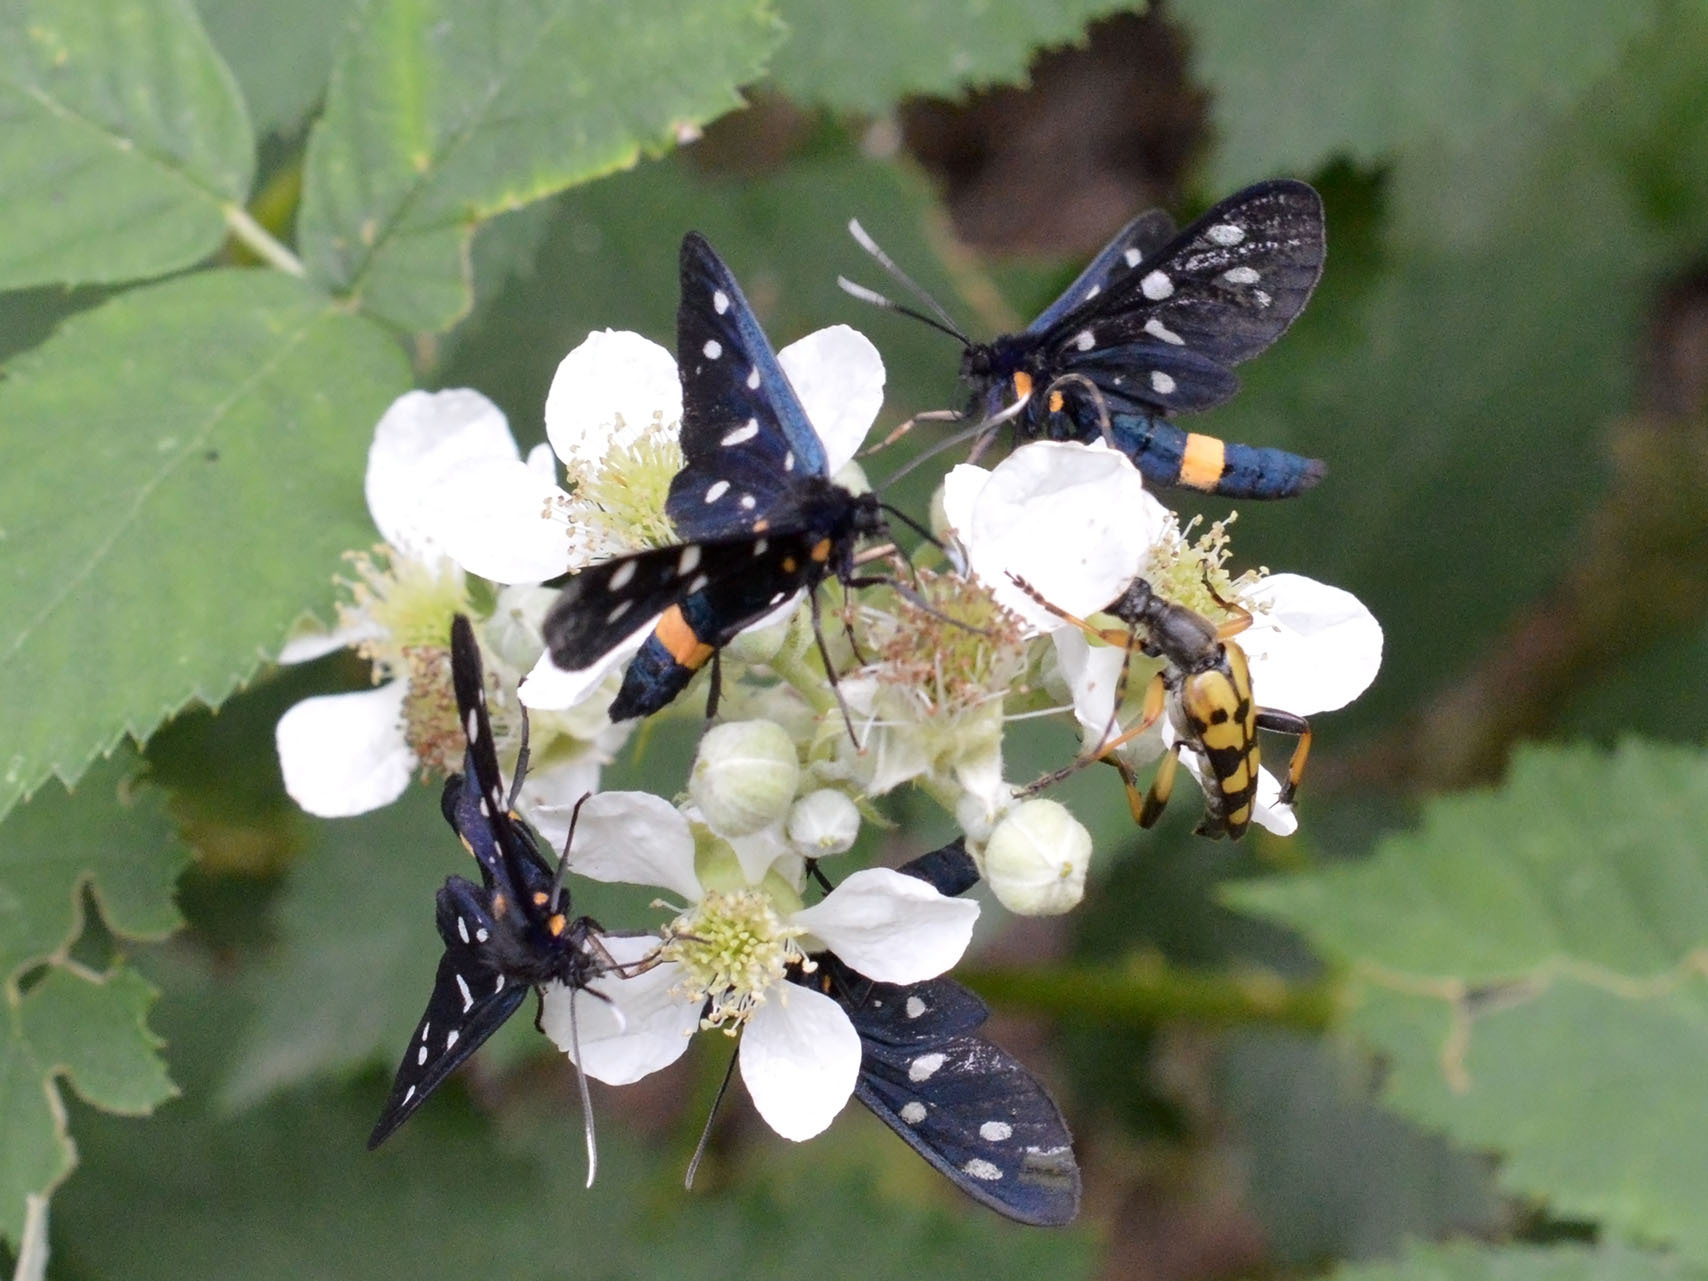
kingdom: Animalia
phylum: Arthropoda
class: Insecta
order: Lepidoptera
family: Erebidae
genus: Amata
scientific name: Amata phegea
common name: Nine-spotted
